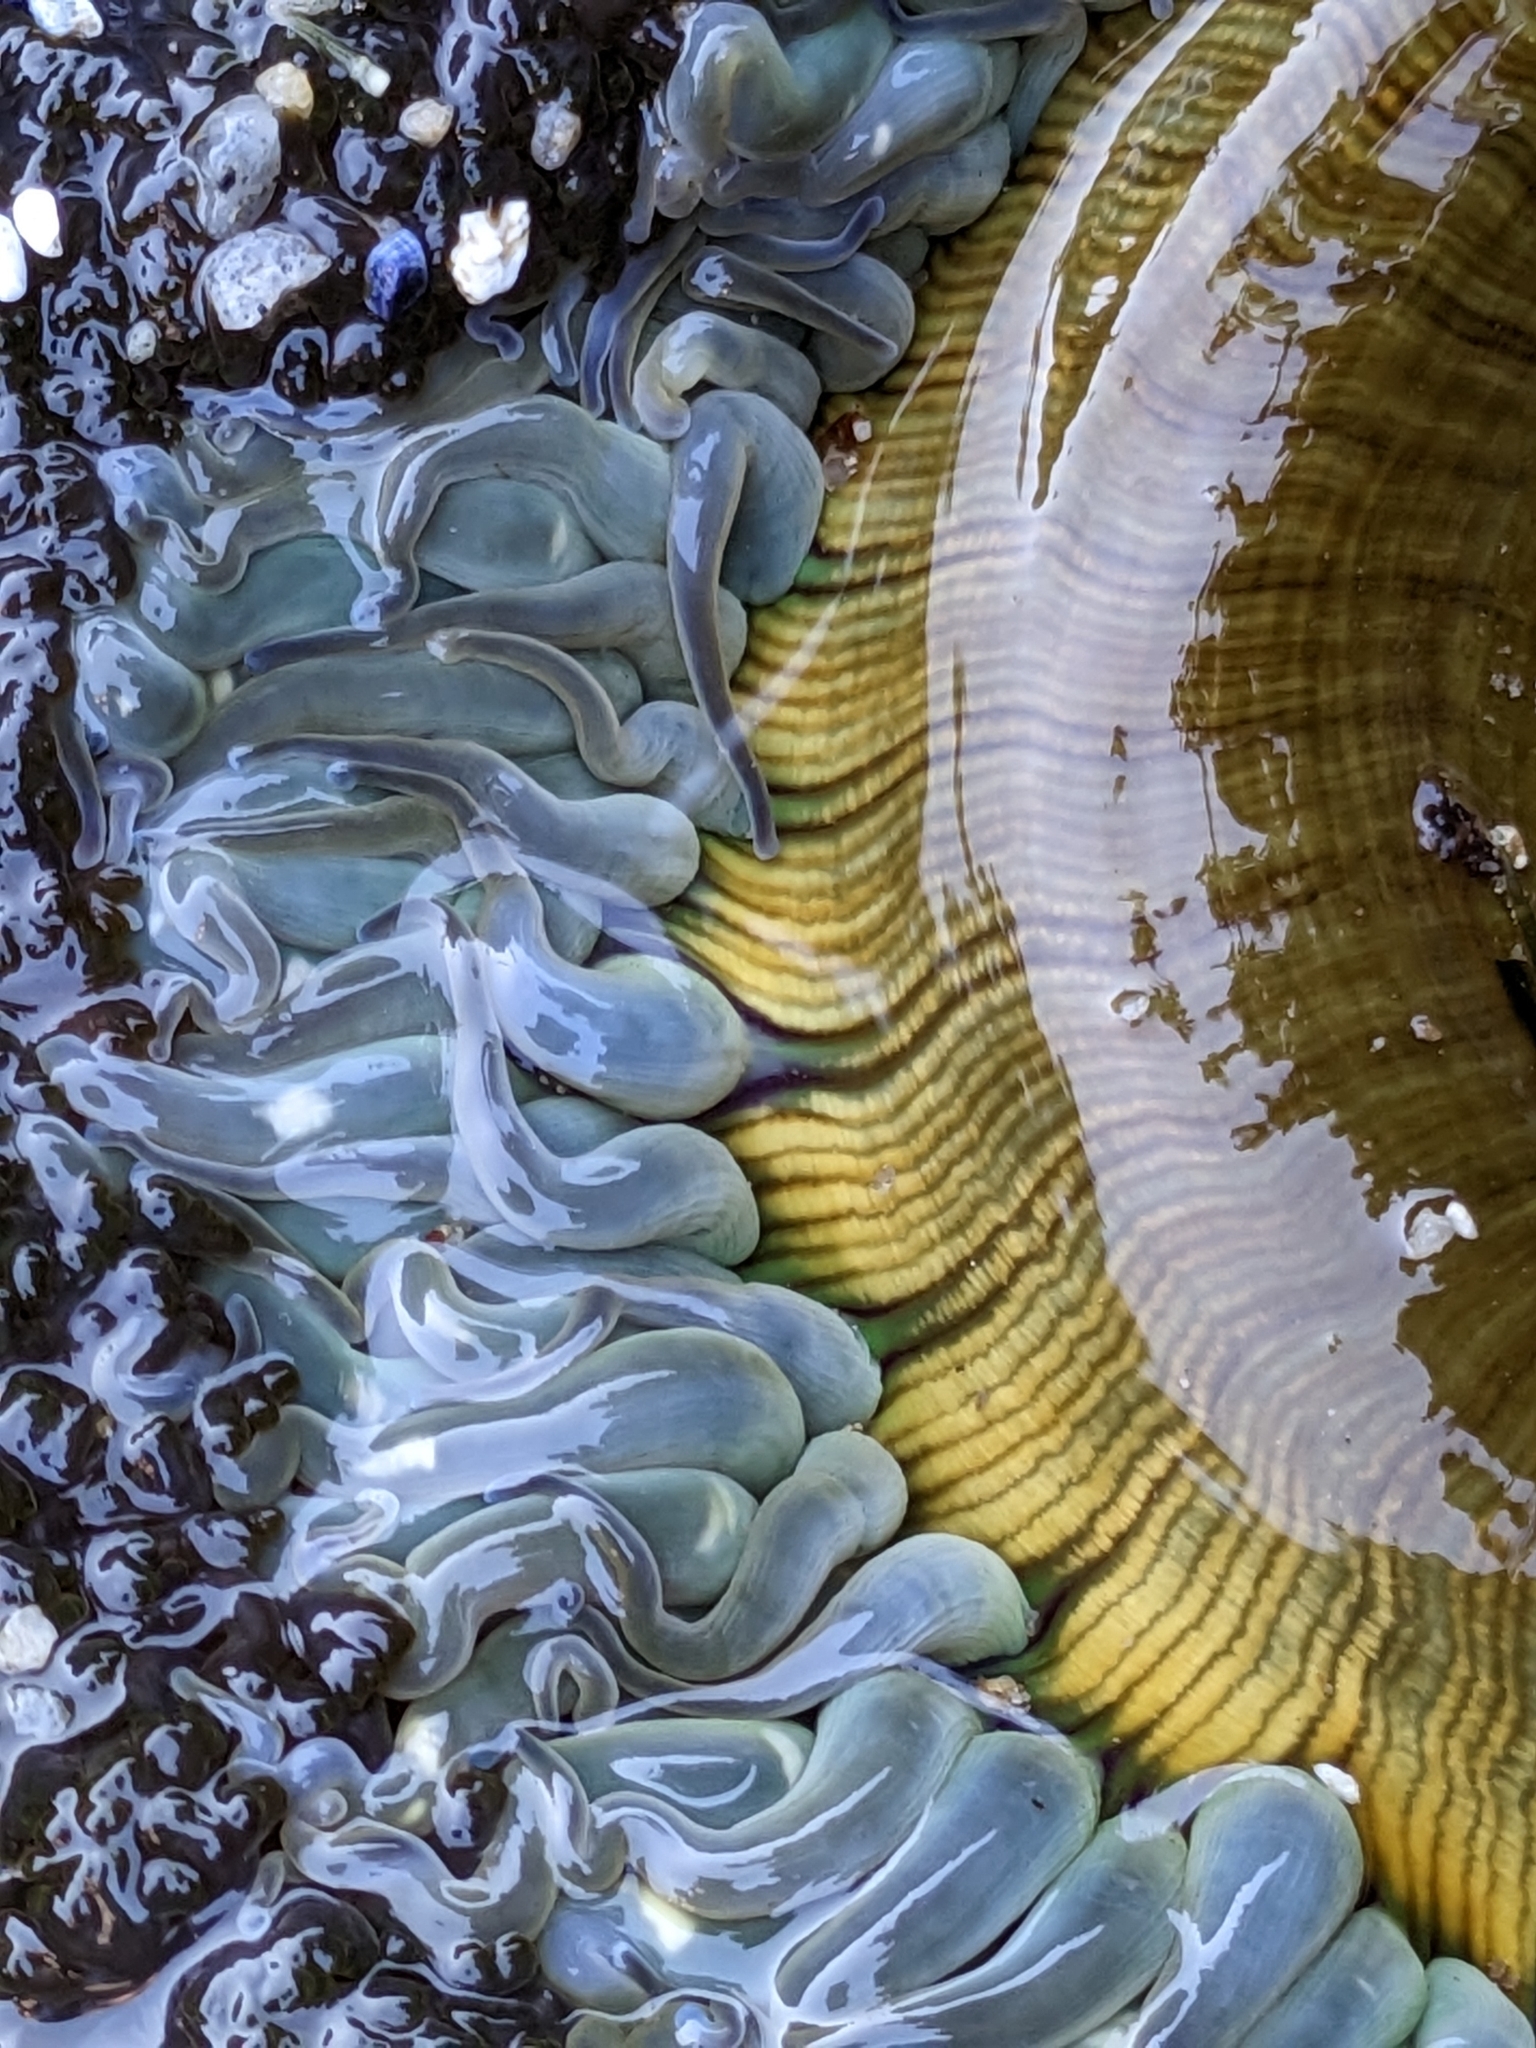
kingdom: Animalia
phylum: Cnidaria
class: Anthozoa
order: Actiniaria
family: Actiniidae
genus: Anthopleura
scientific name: Anthopleura sola
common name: Sun anemone
